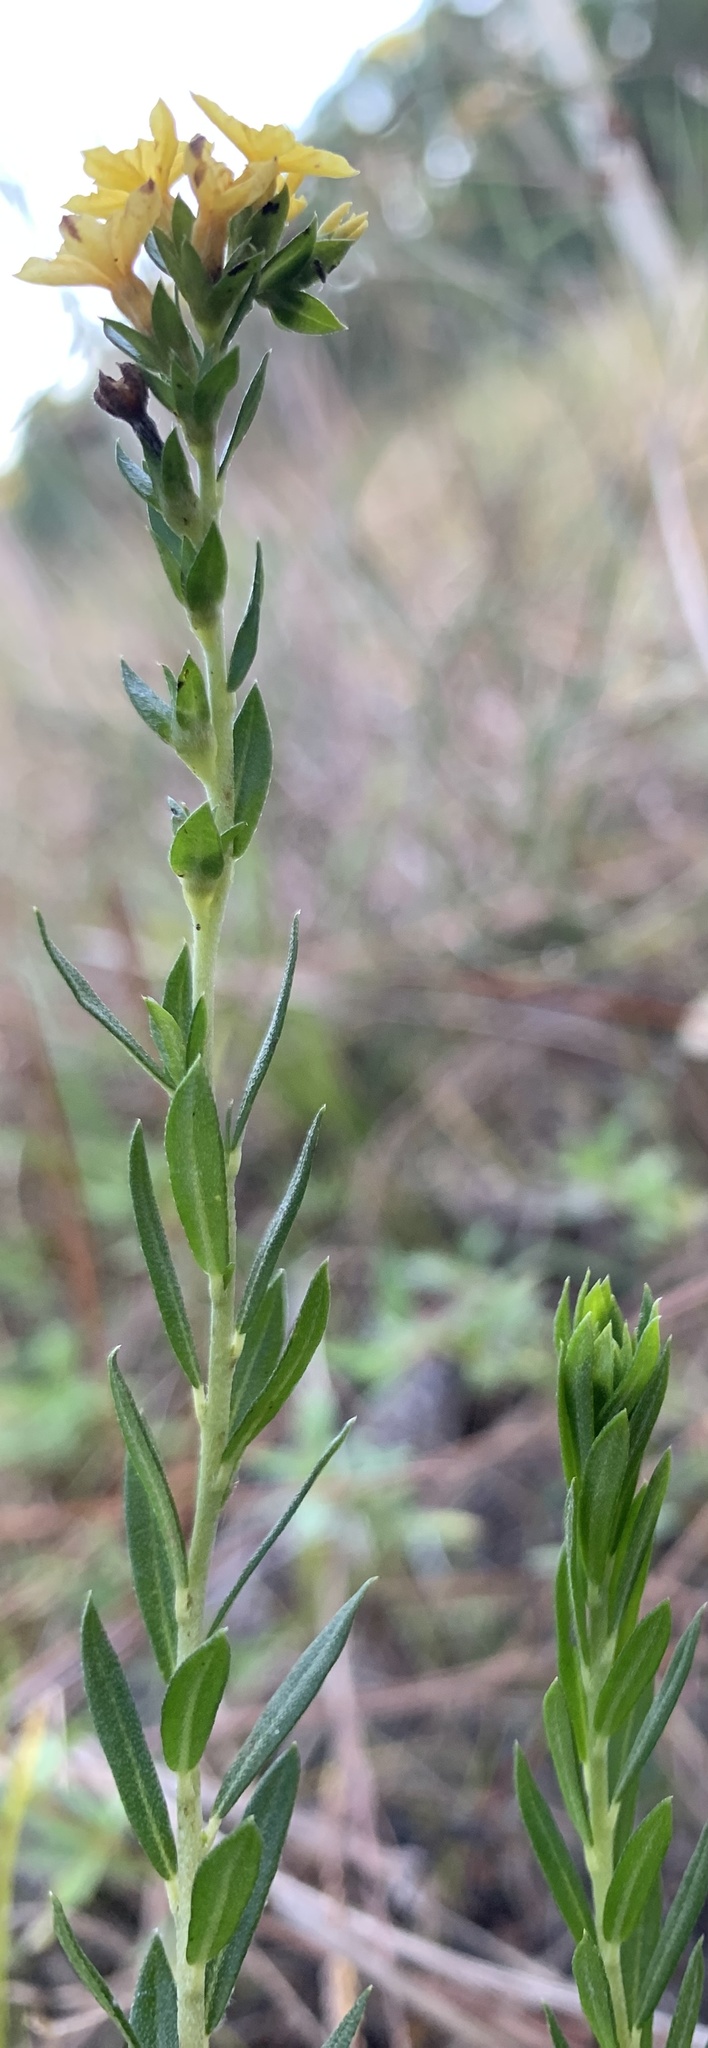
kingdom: Plantae
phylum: Tracheophyta
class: Magnoliopsida
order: Boraginales
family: Heliotropiaceae
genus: Euploca
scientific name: Euploca polyphylla
